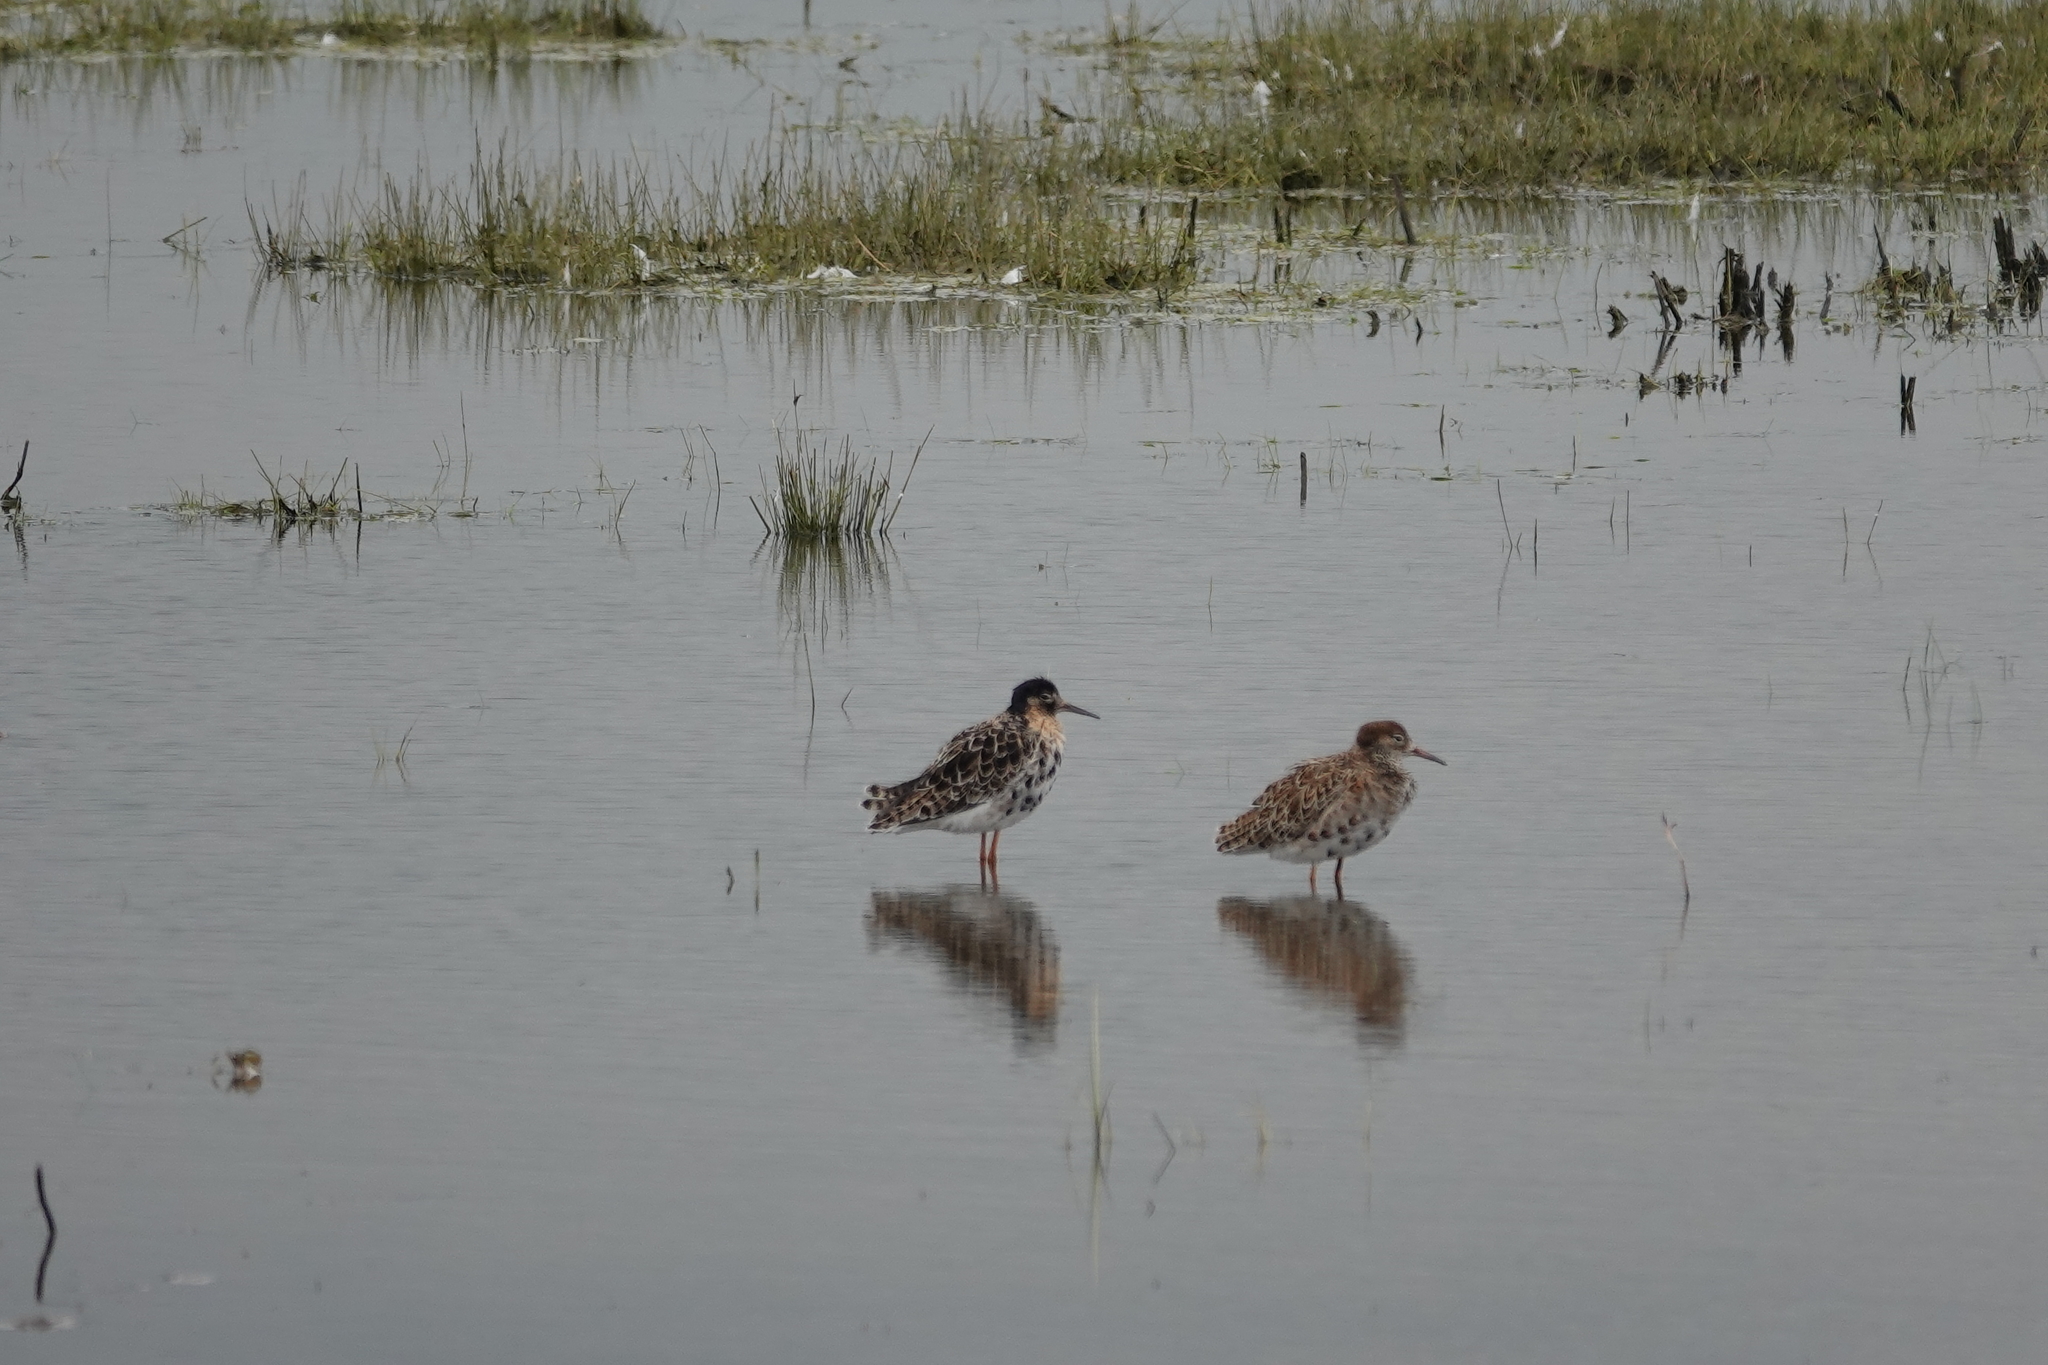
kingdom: Animalia
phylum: Chordata
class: Aves
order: Charadriiformes
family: Scolopacidae
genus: Calidris
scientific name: Calidris pugnax
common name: Ruff
